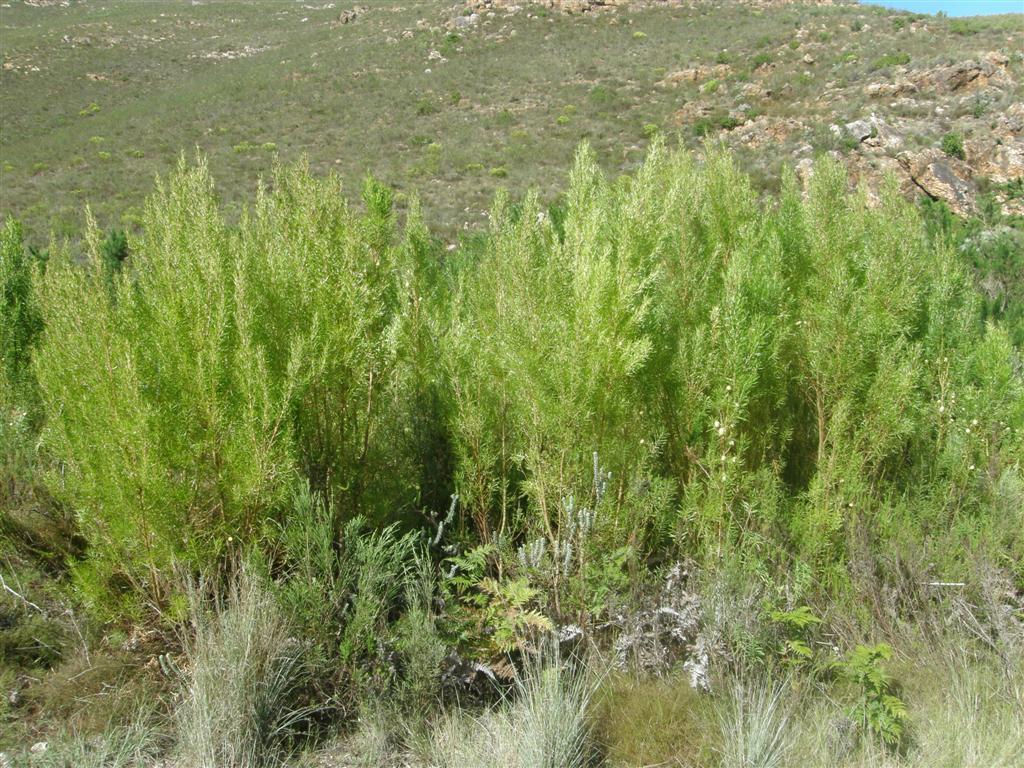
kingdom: Plantae
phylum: Tracheophyta
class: Magnoliopsida
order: Proteales
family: Proteaceae
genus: Leucadendron
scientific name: Leucadendron salicifolium
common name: Common stream conebush
